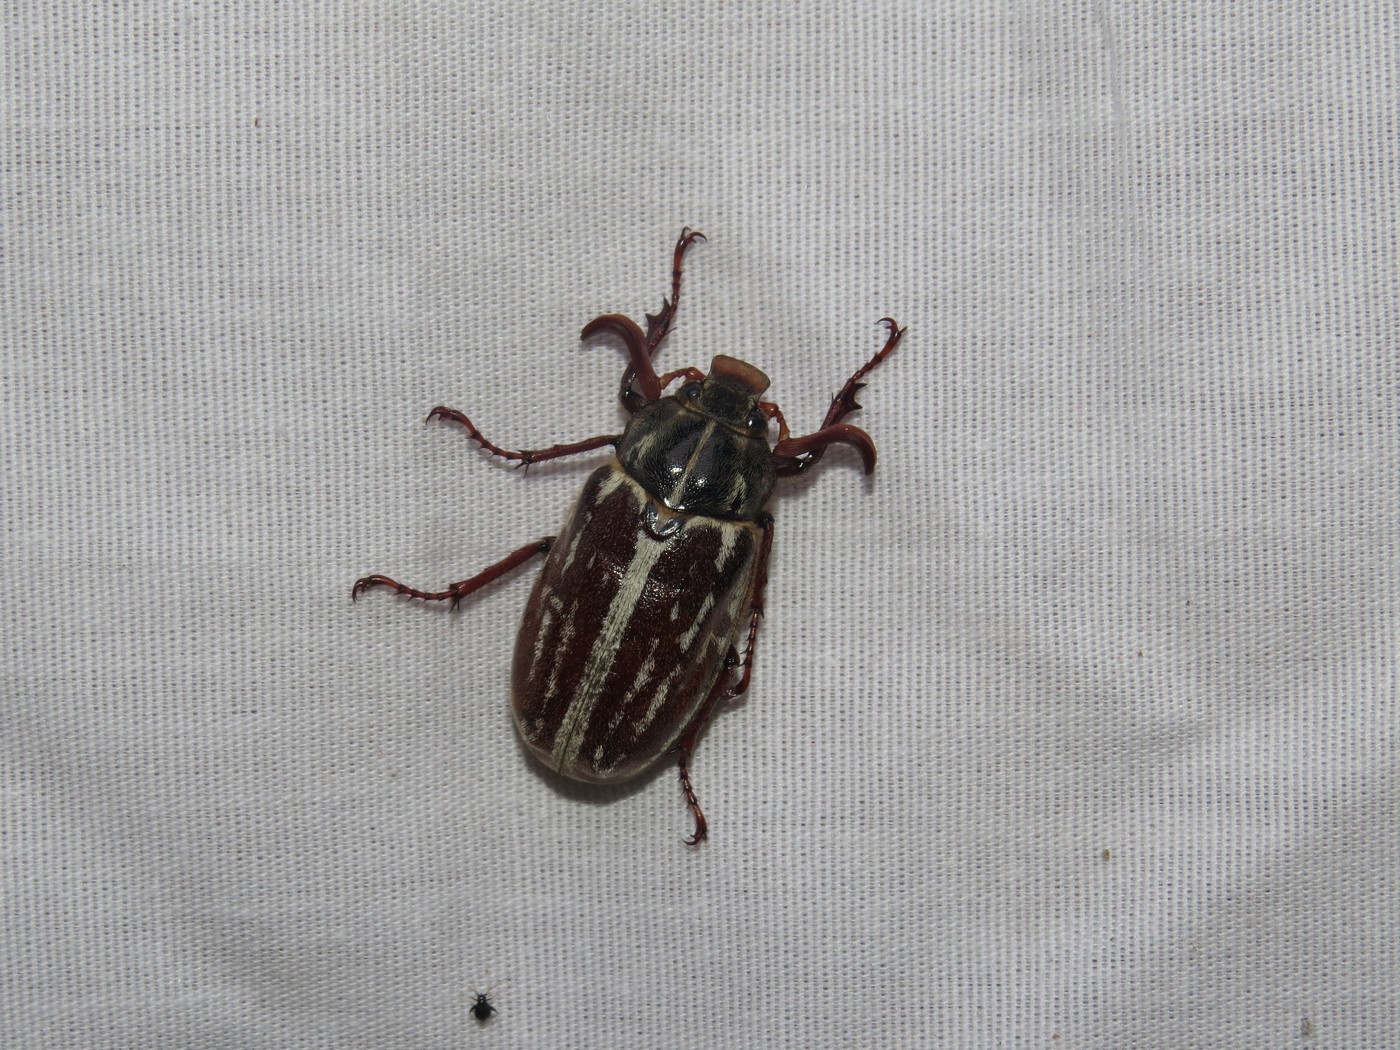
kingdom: Animalia
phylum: Arthropoda
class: Insecta
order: Coleoptera
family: Scarabaeidae
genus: Polyphylla
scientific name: Polyphylla comes
